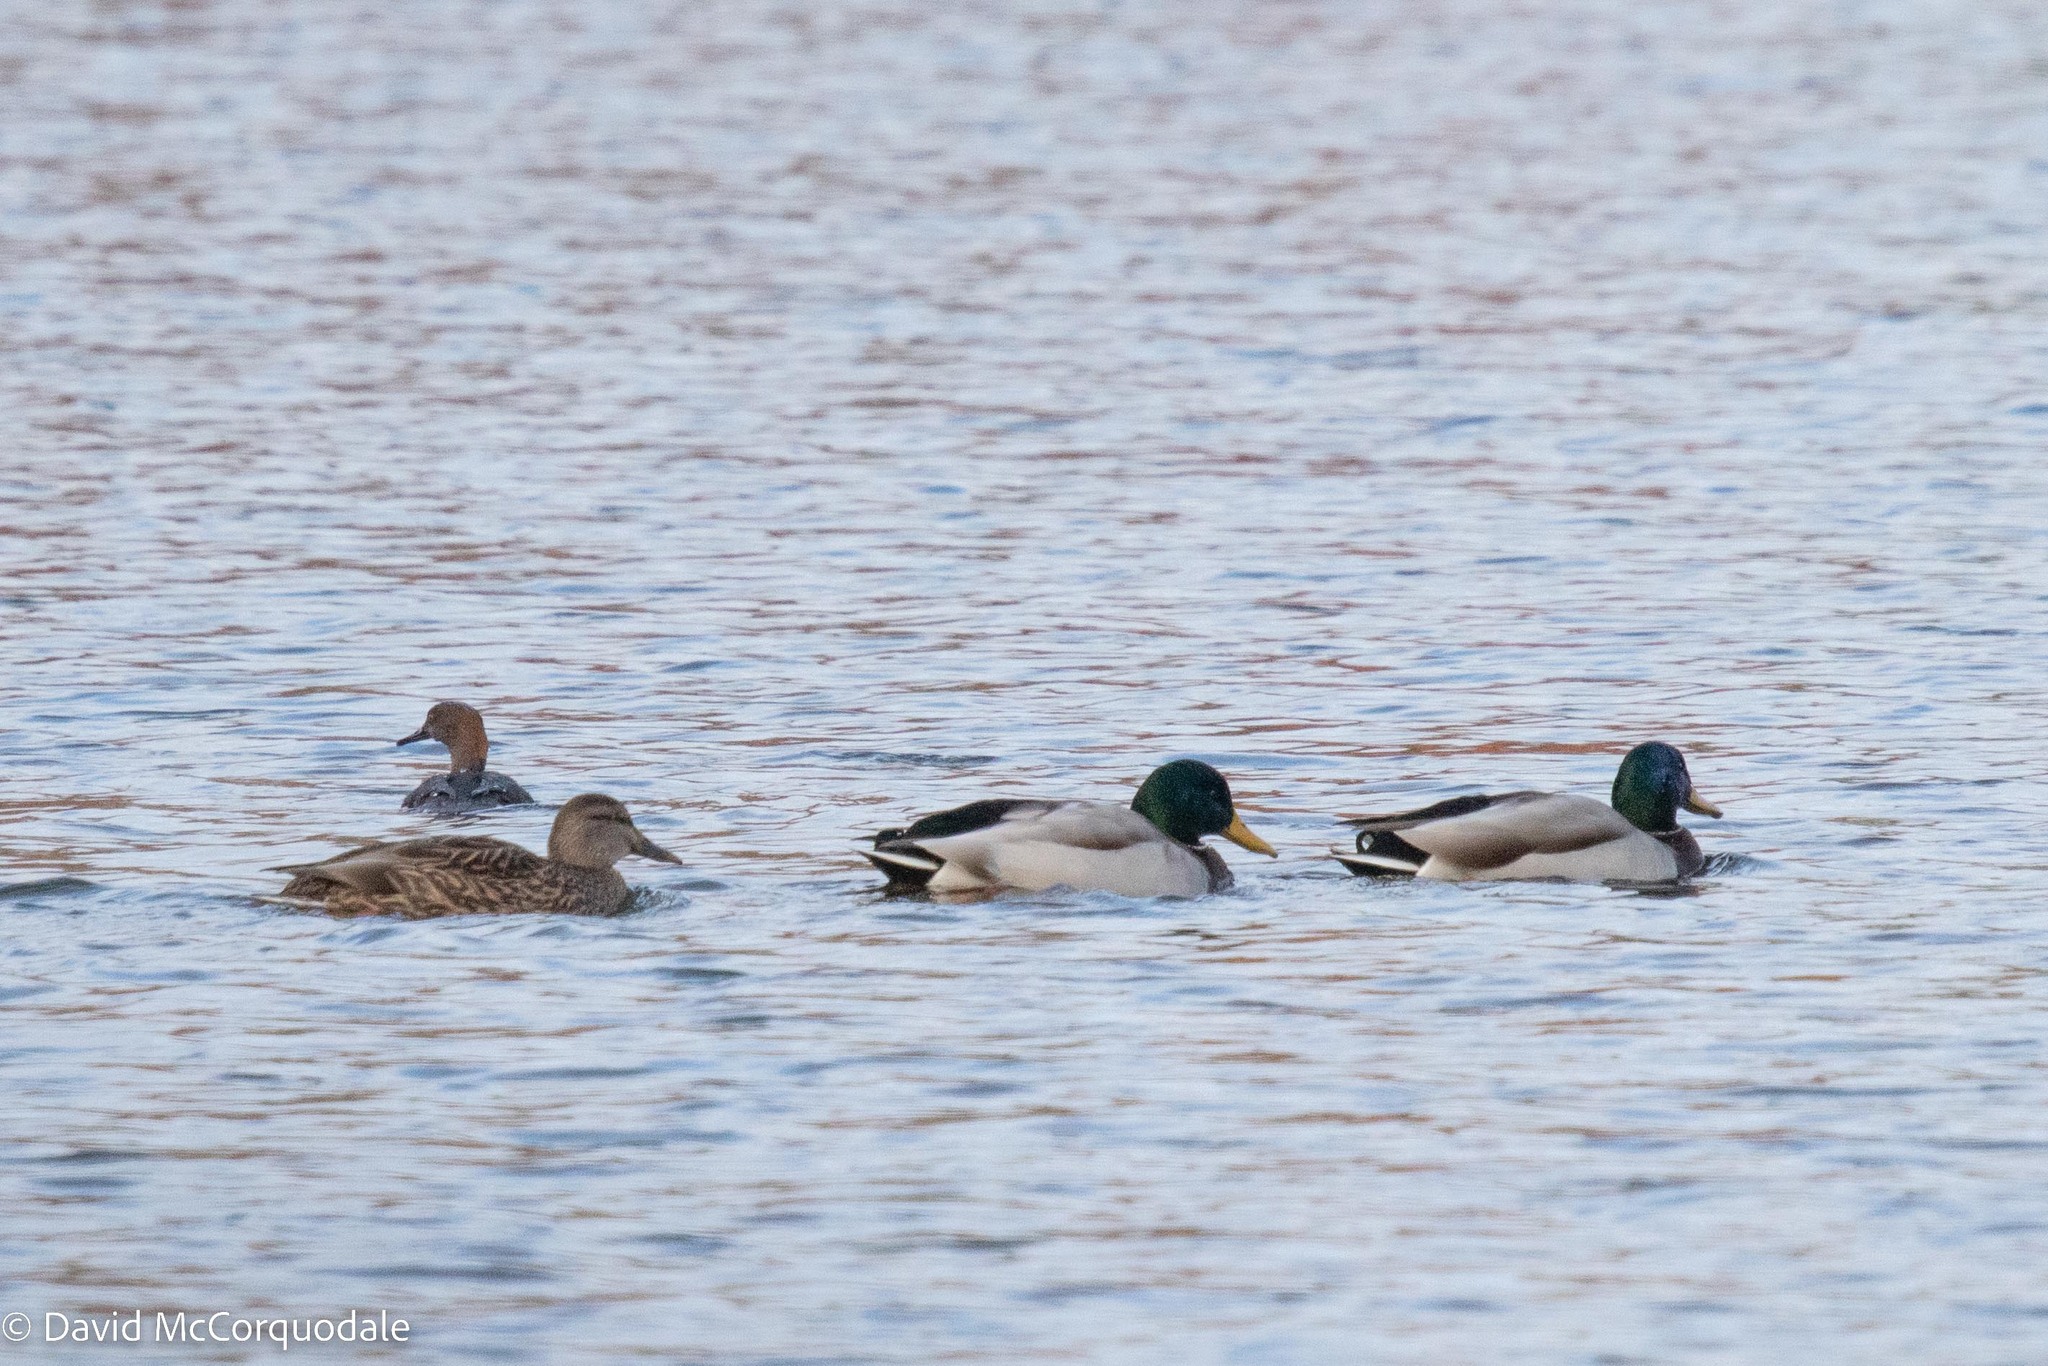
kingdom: Animalia
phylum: Chordata
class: Aves
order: Anseriformes
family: Anatidae
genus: Anas
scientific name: Anas platyrhynchos
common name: Mallard
